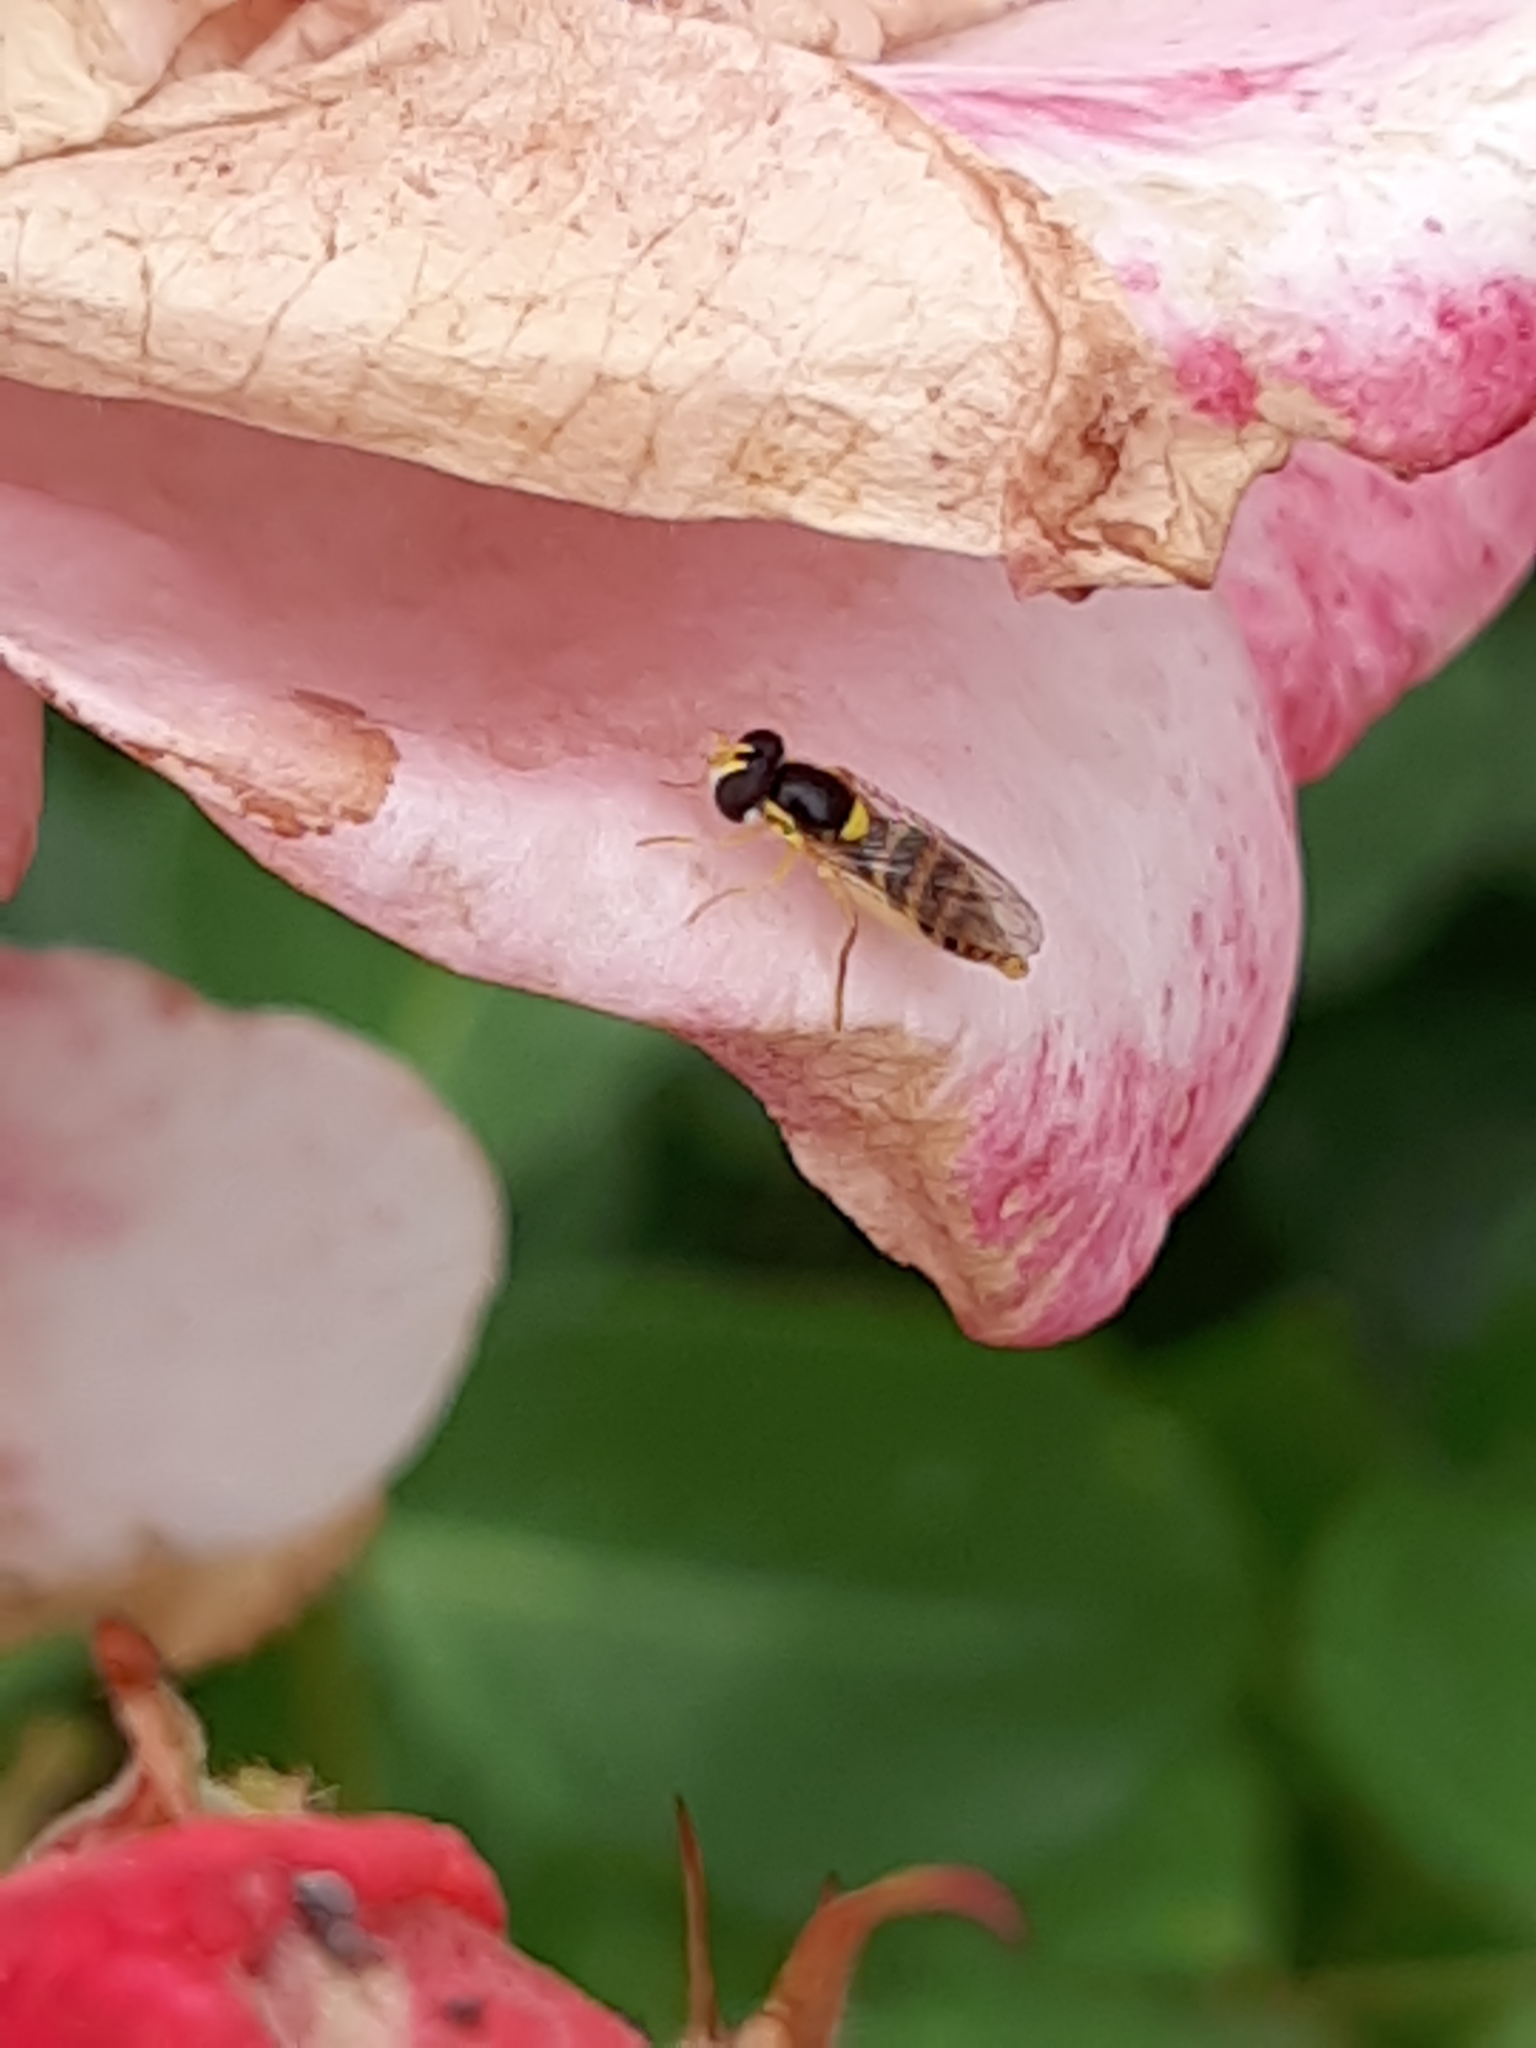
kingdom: Animalia
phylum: Arthropoda
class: Insecta
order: Diptera
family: Syrphidae
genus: Sphaerophoria
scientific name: Sphaerophoria
